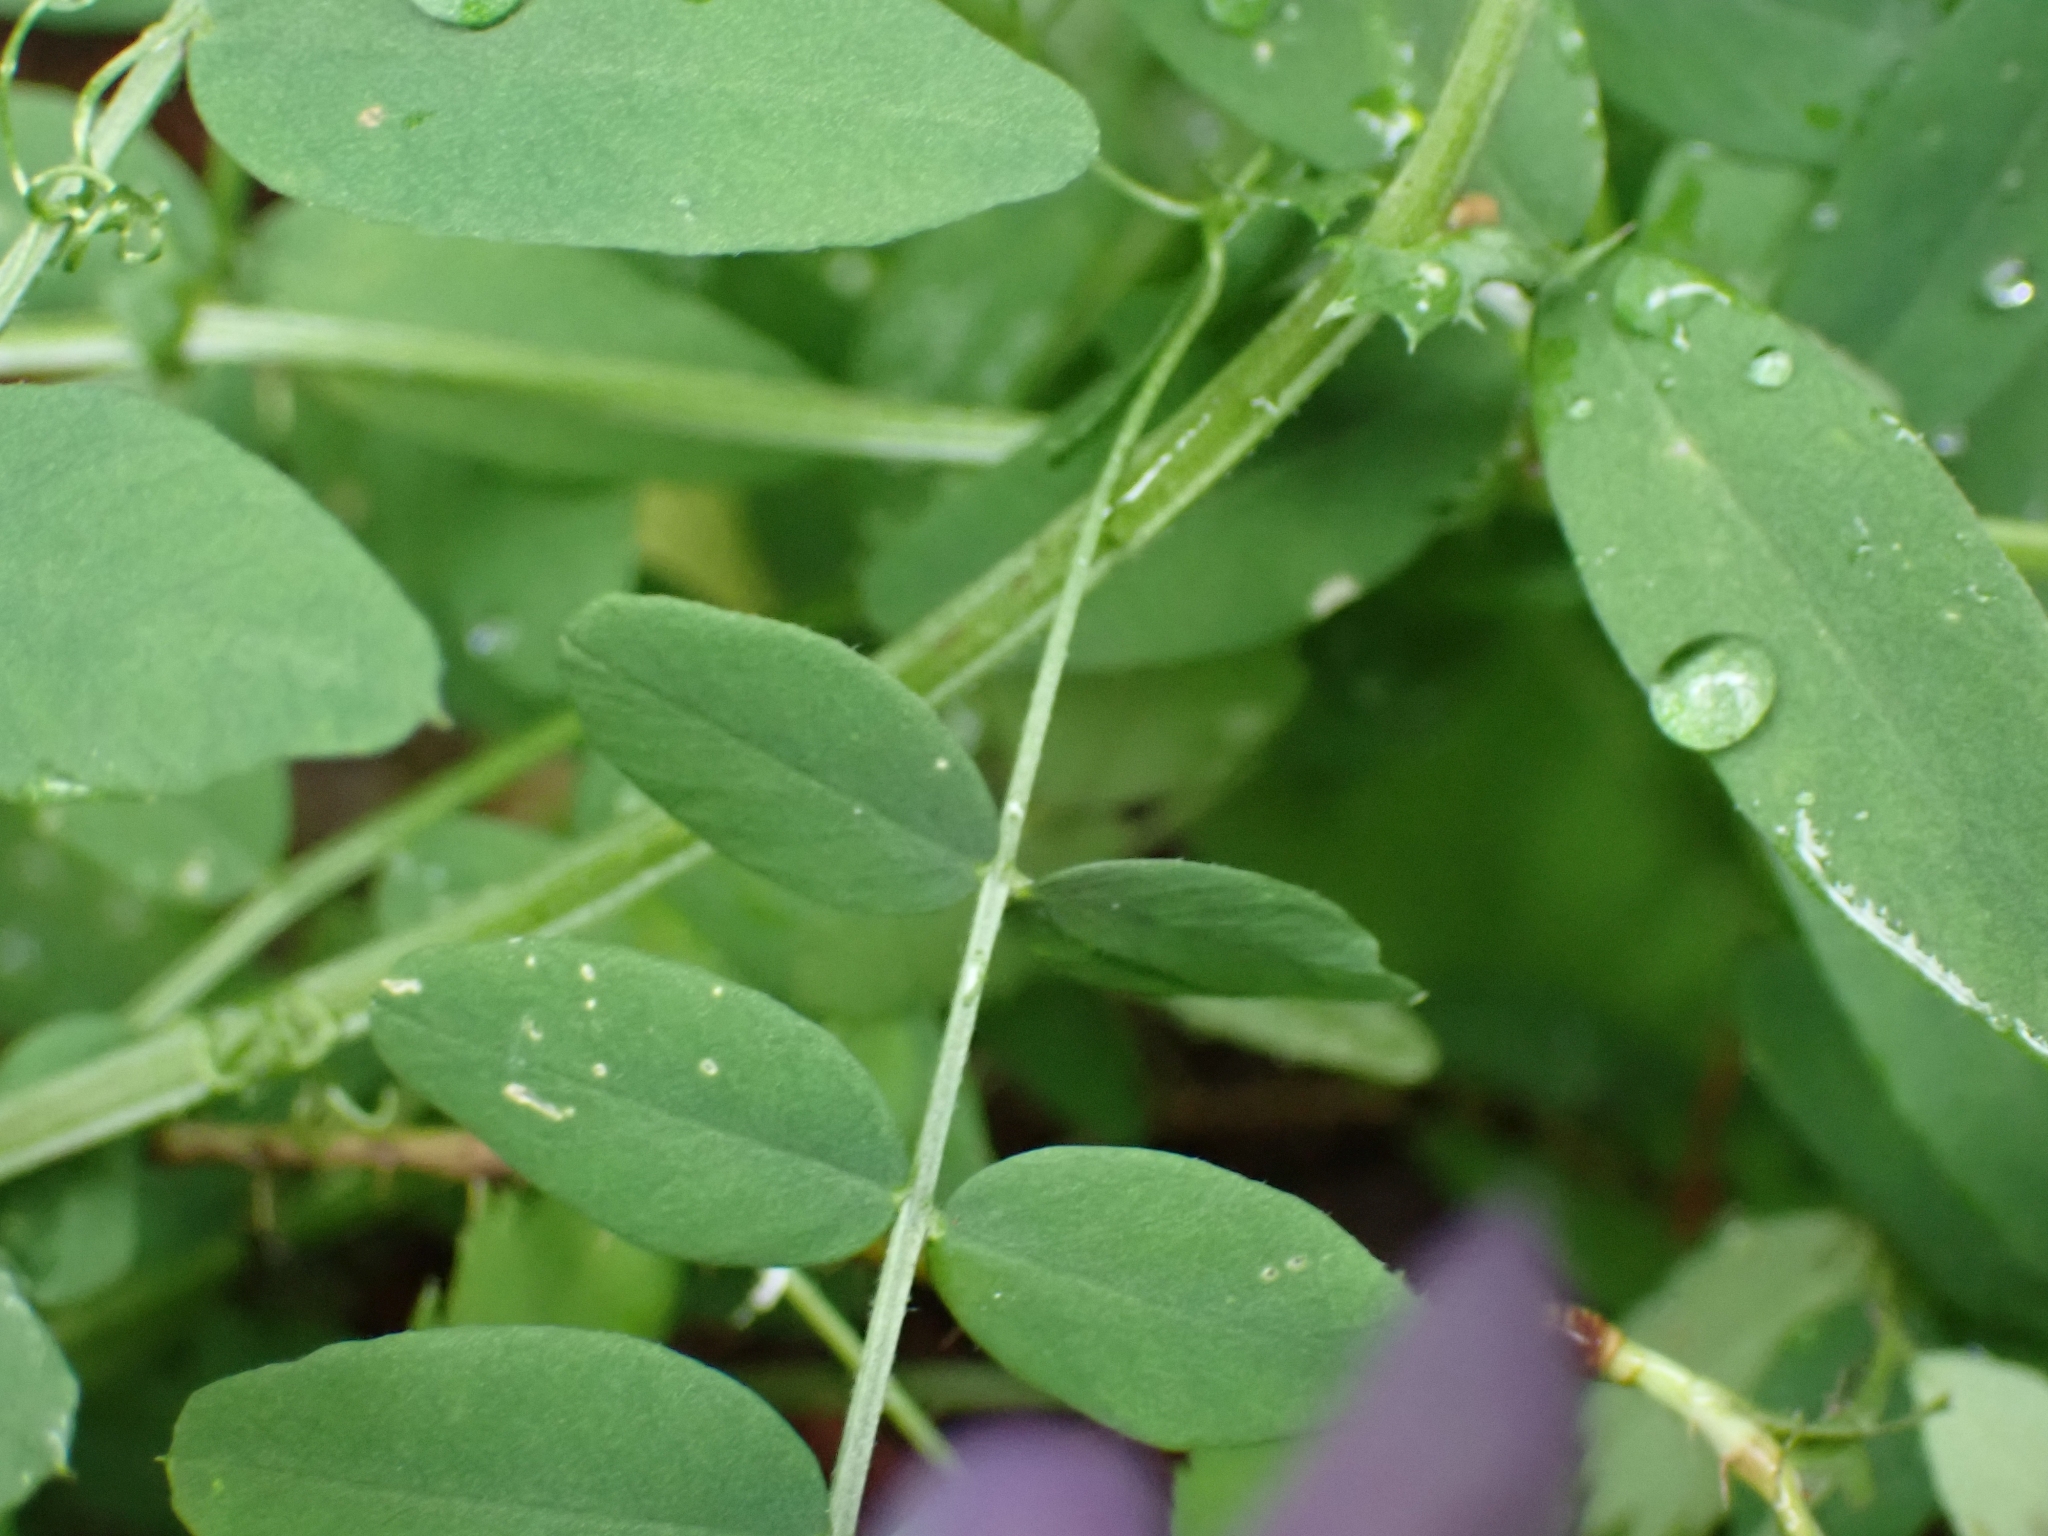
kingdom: Plantae
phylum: Tracheophyta
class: Magnoliopsida
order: Fabales
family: Fabaceae
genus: Vicia
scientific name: Vicia americana
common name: American vetch
